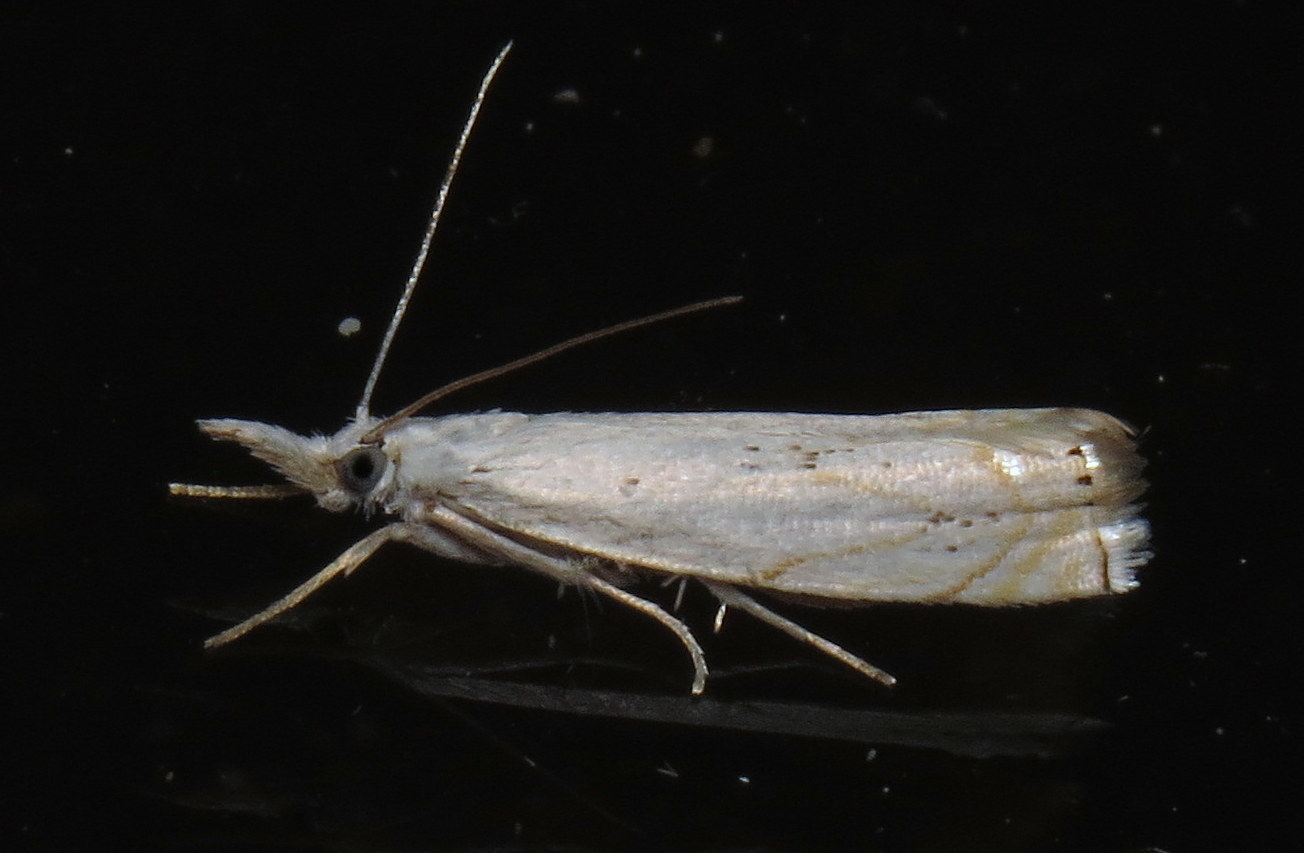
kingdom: Animalia
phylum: Arthropoda
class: Insecta
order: Lepidoptera
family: Crambidae
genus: Crambus
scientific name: Crambus albellus
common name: Small white grass-veneer
